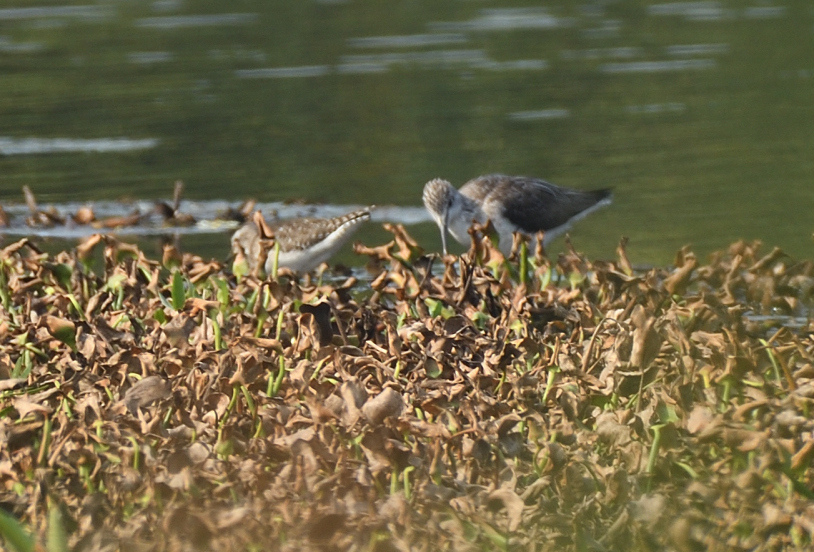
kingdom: Animalia
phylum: Chordata
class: Aves
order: Charadriiformes
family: Scolopacidae
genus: Tringa
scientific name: Tringa glareola
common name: Wood sandpiper
